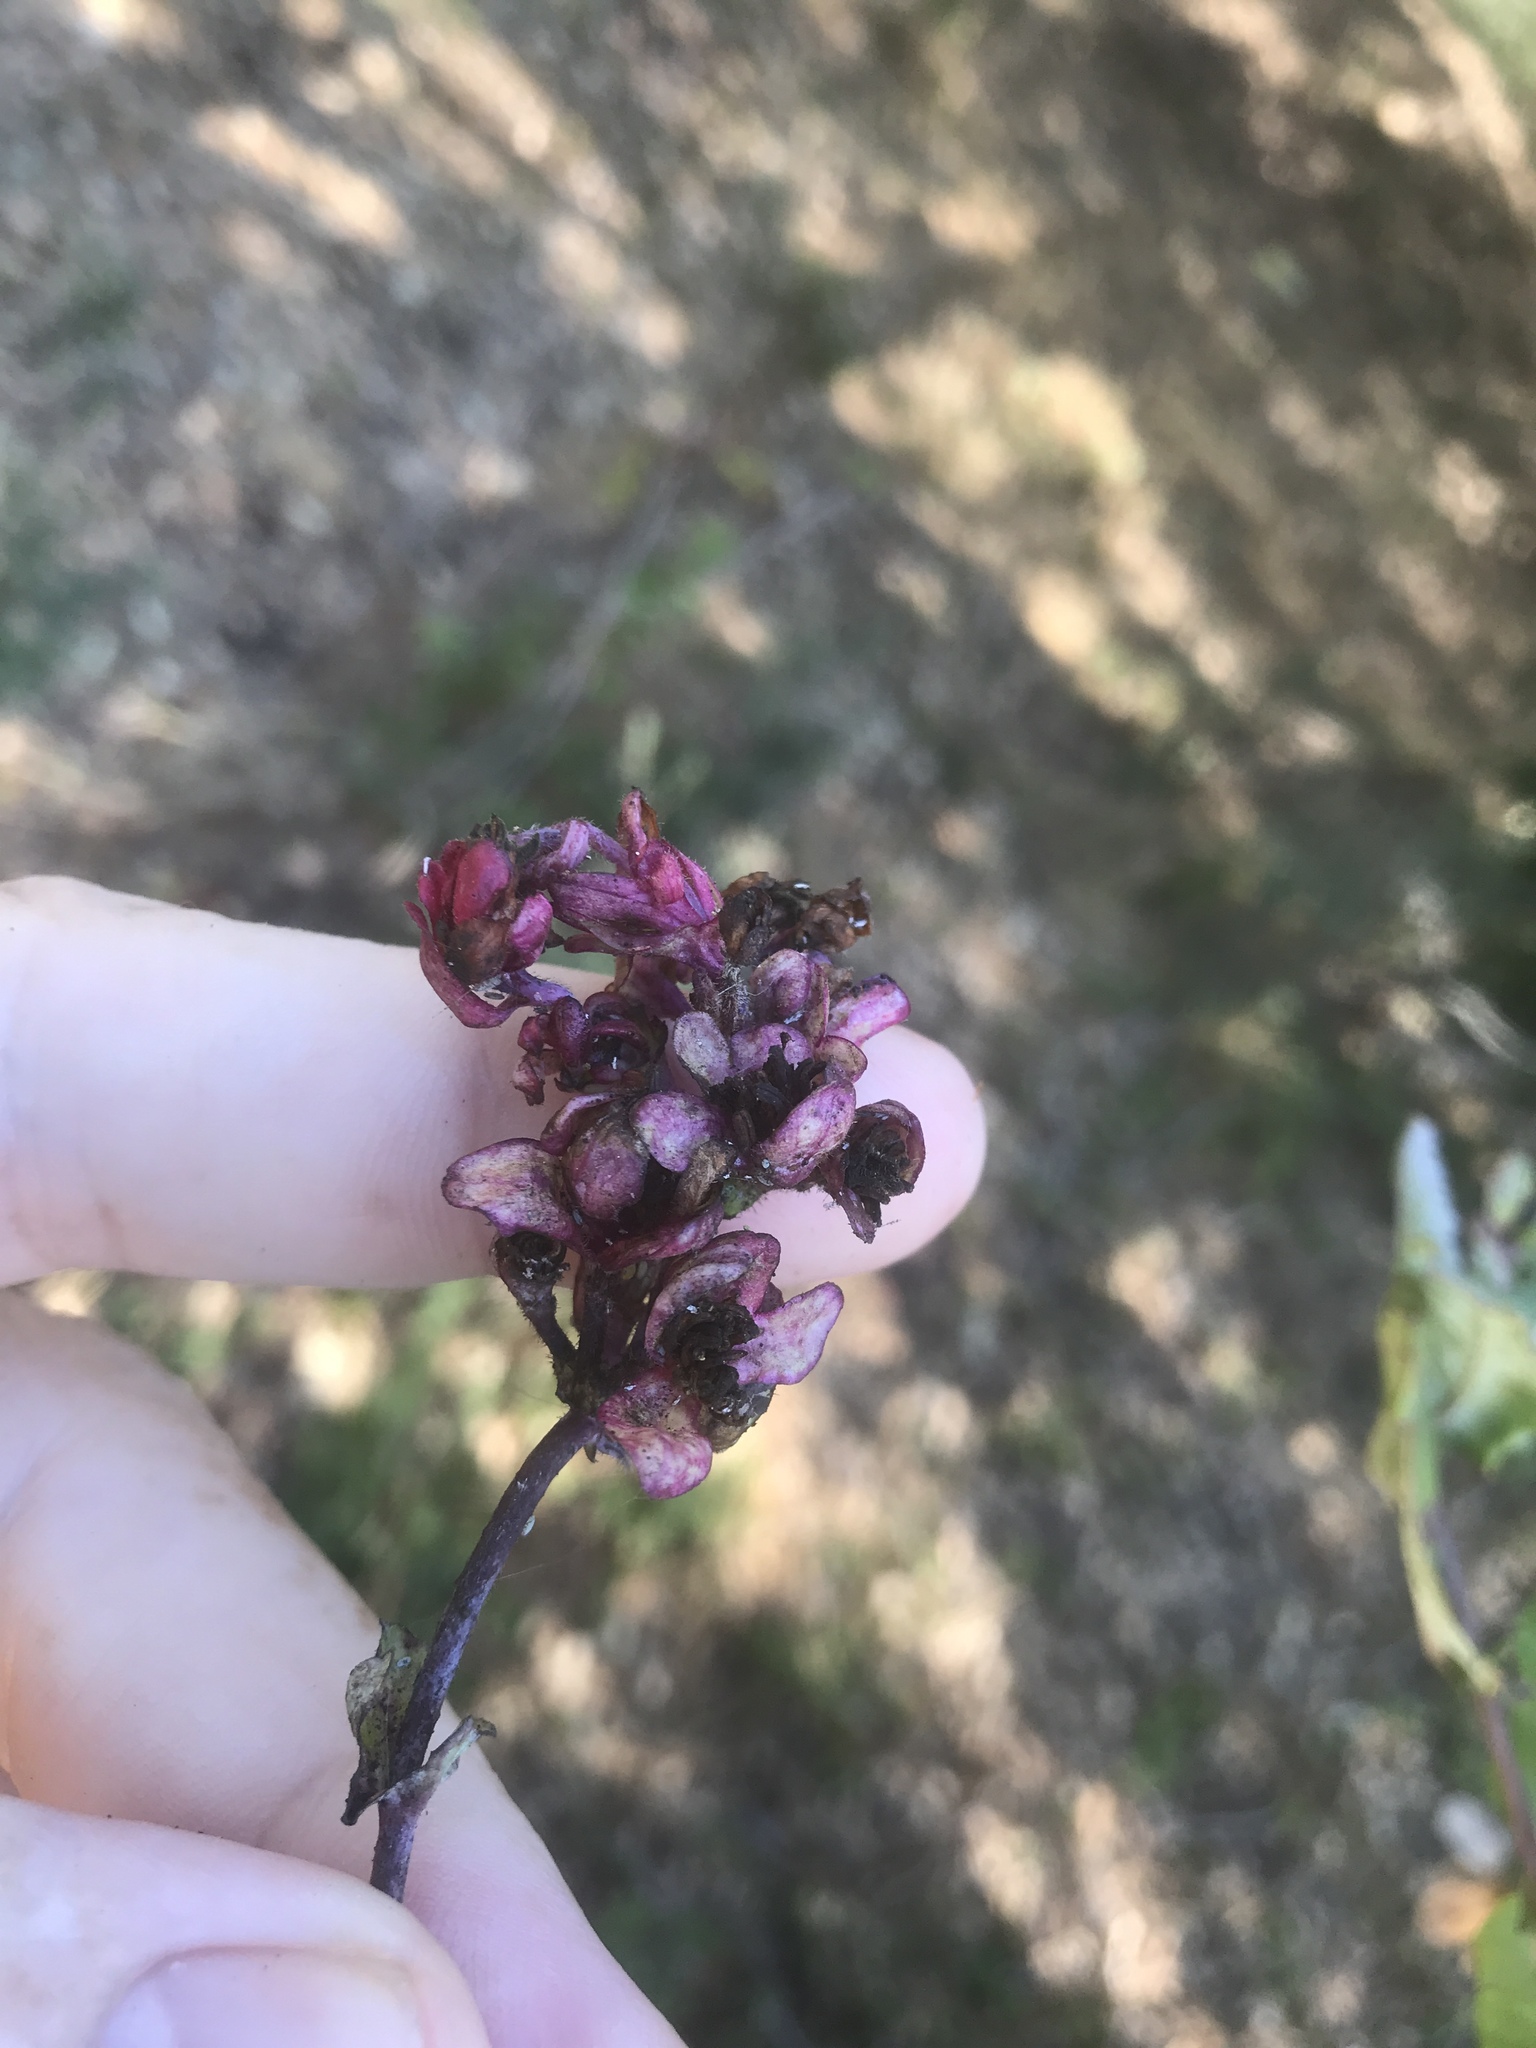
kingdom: Plantae
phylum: Tracheophyta
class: Magnoliopsida
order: Dipsacales
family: Caprifoliaceae
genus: Lonicera
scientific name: Lonicera hispidula
